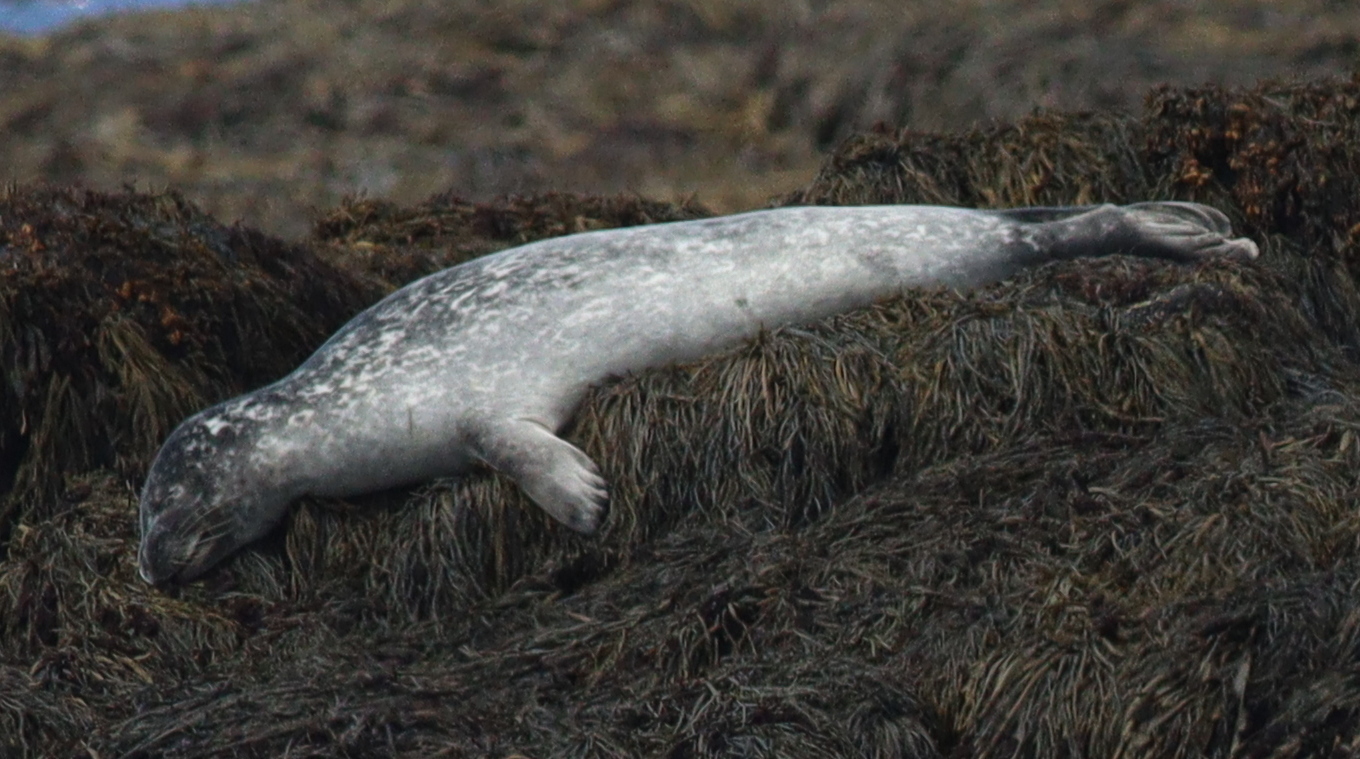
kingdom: Animalia
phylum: Chordata
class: Mammalia
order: Carnivora
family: Phocidae
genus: Phoca
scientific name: Phoca vitulina
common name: Harbor seal
